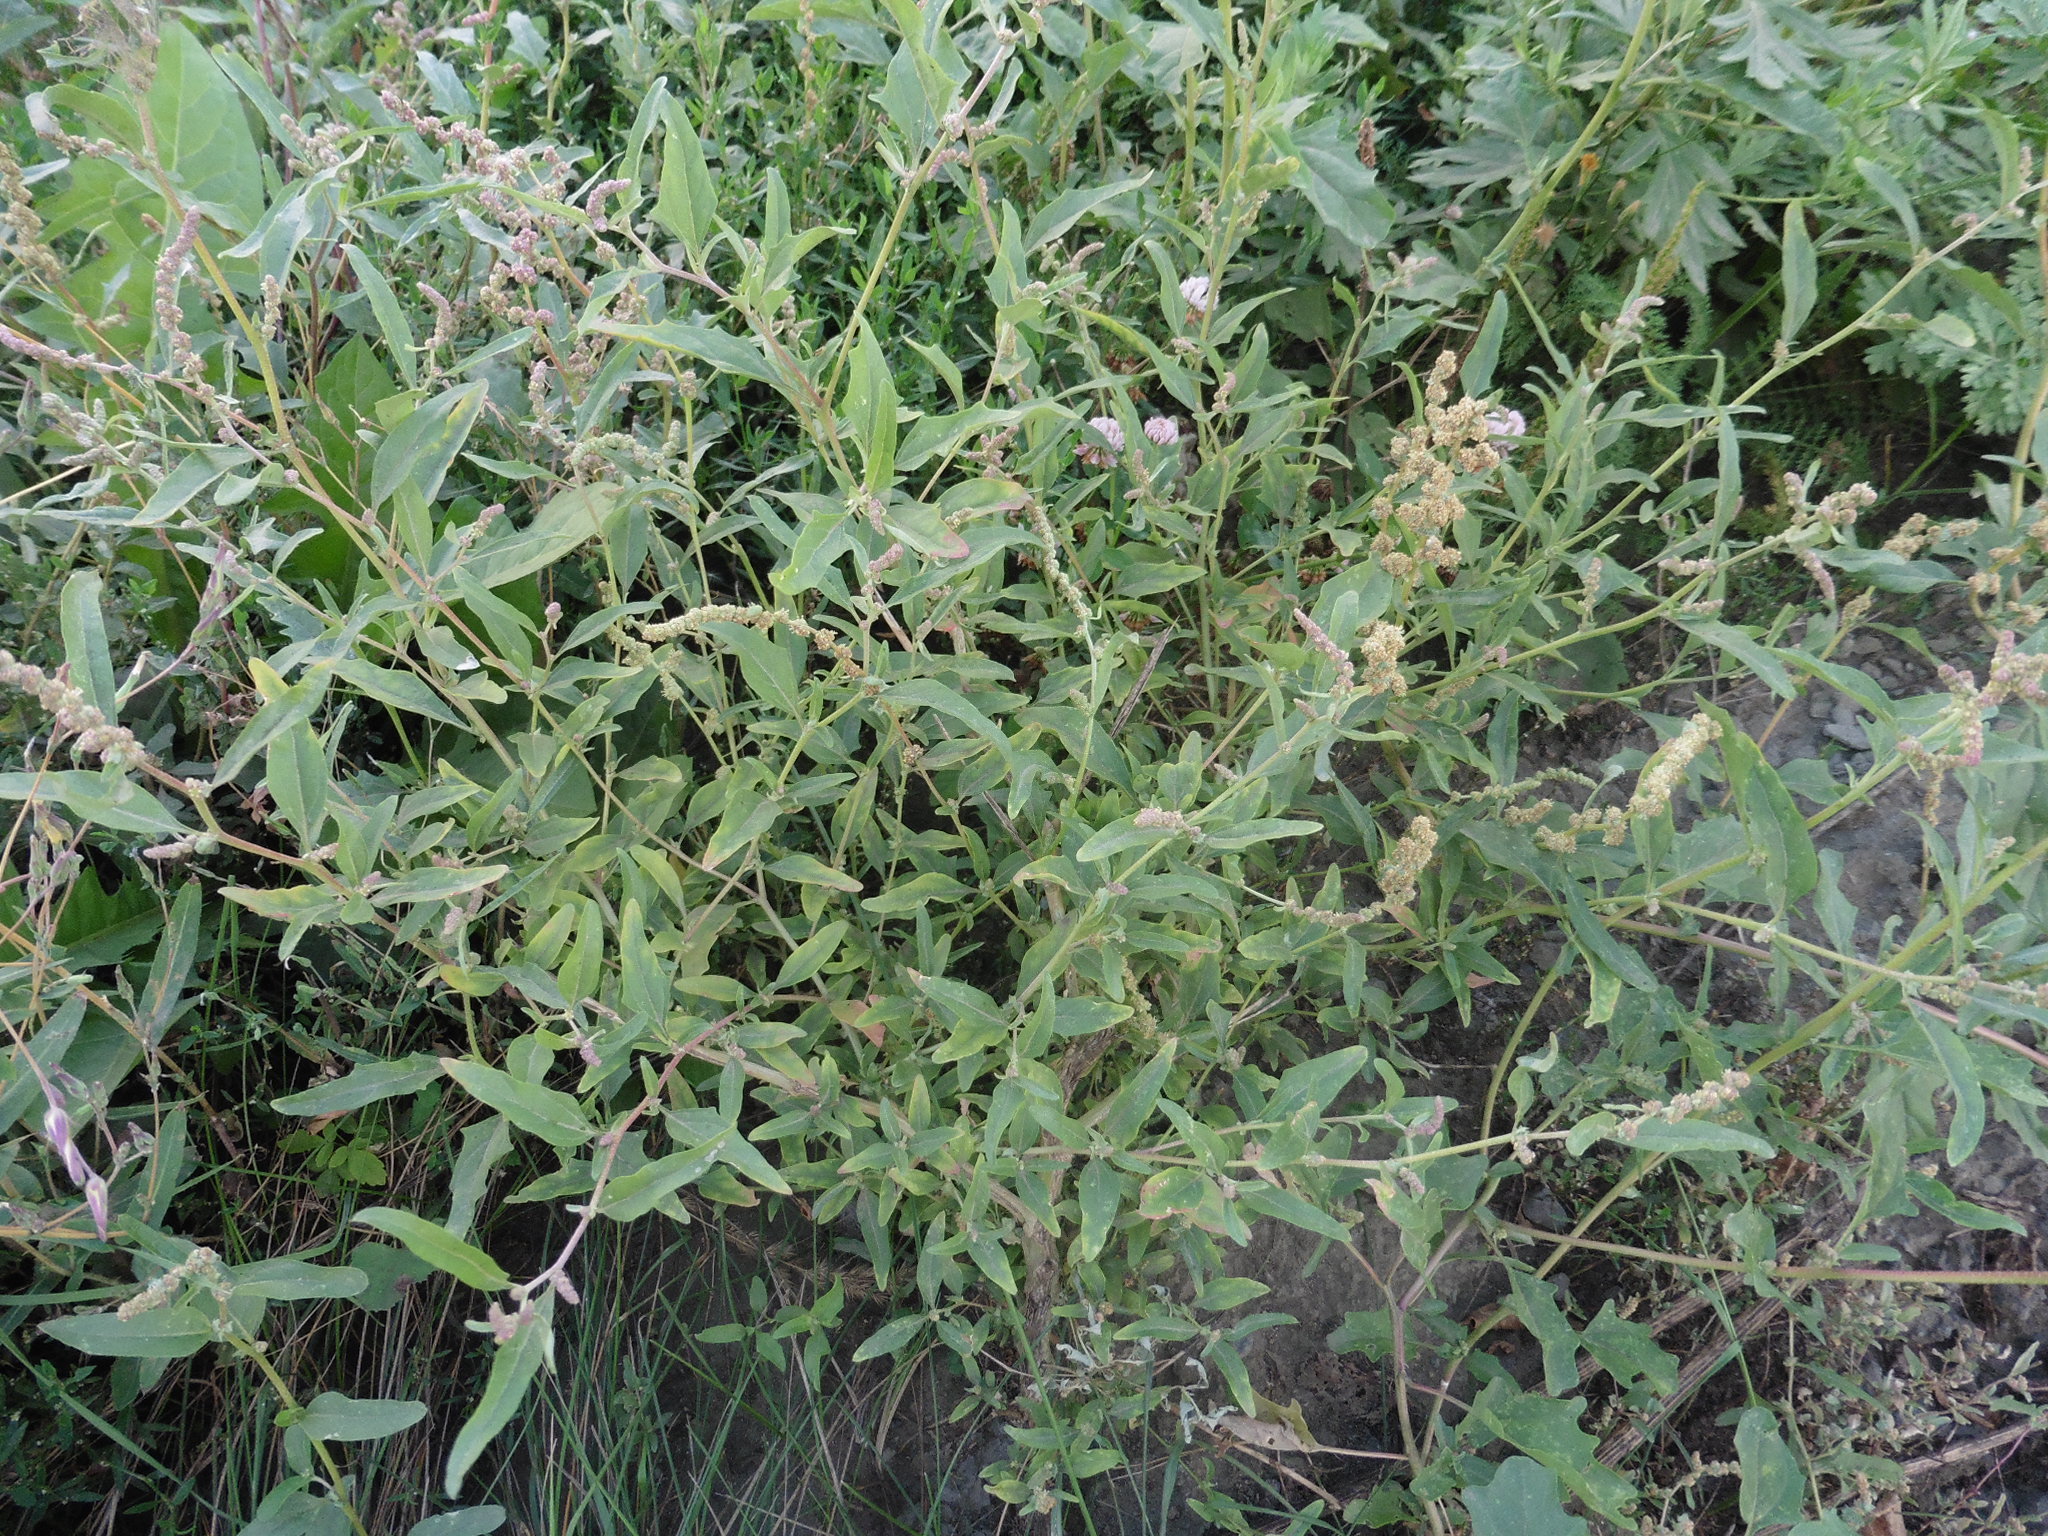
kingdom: Plantae
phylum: Tracheophyta
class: Magnoliopsida
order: Caryophyllales
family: Amaranthaceae
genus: Atriplex
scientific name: Atriplex tatarica
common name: Tatarian orache
